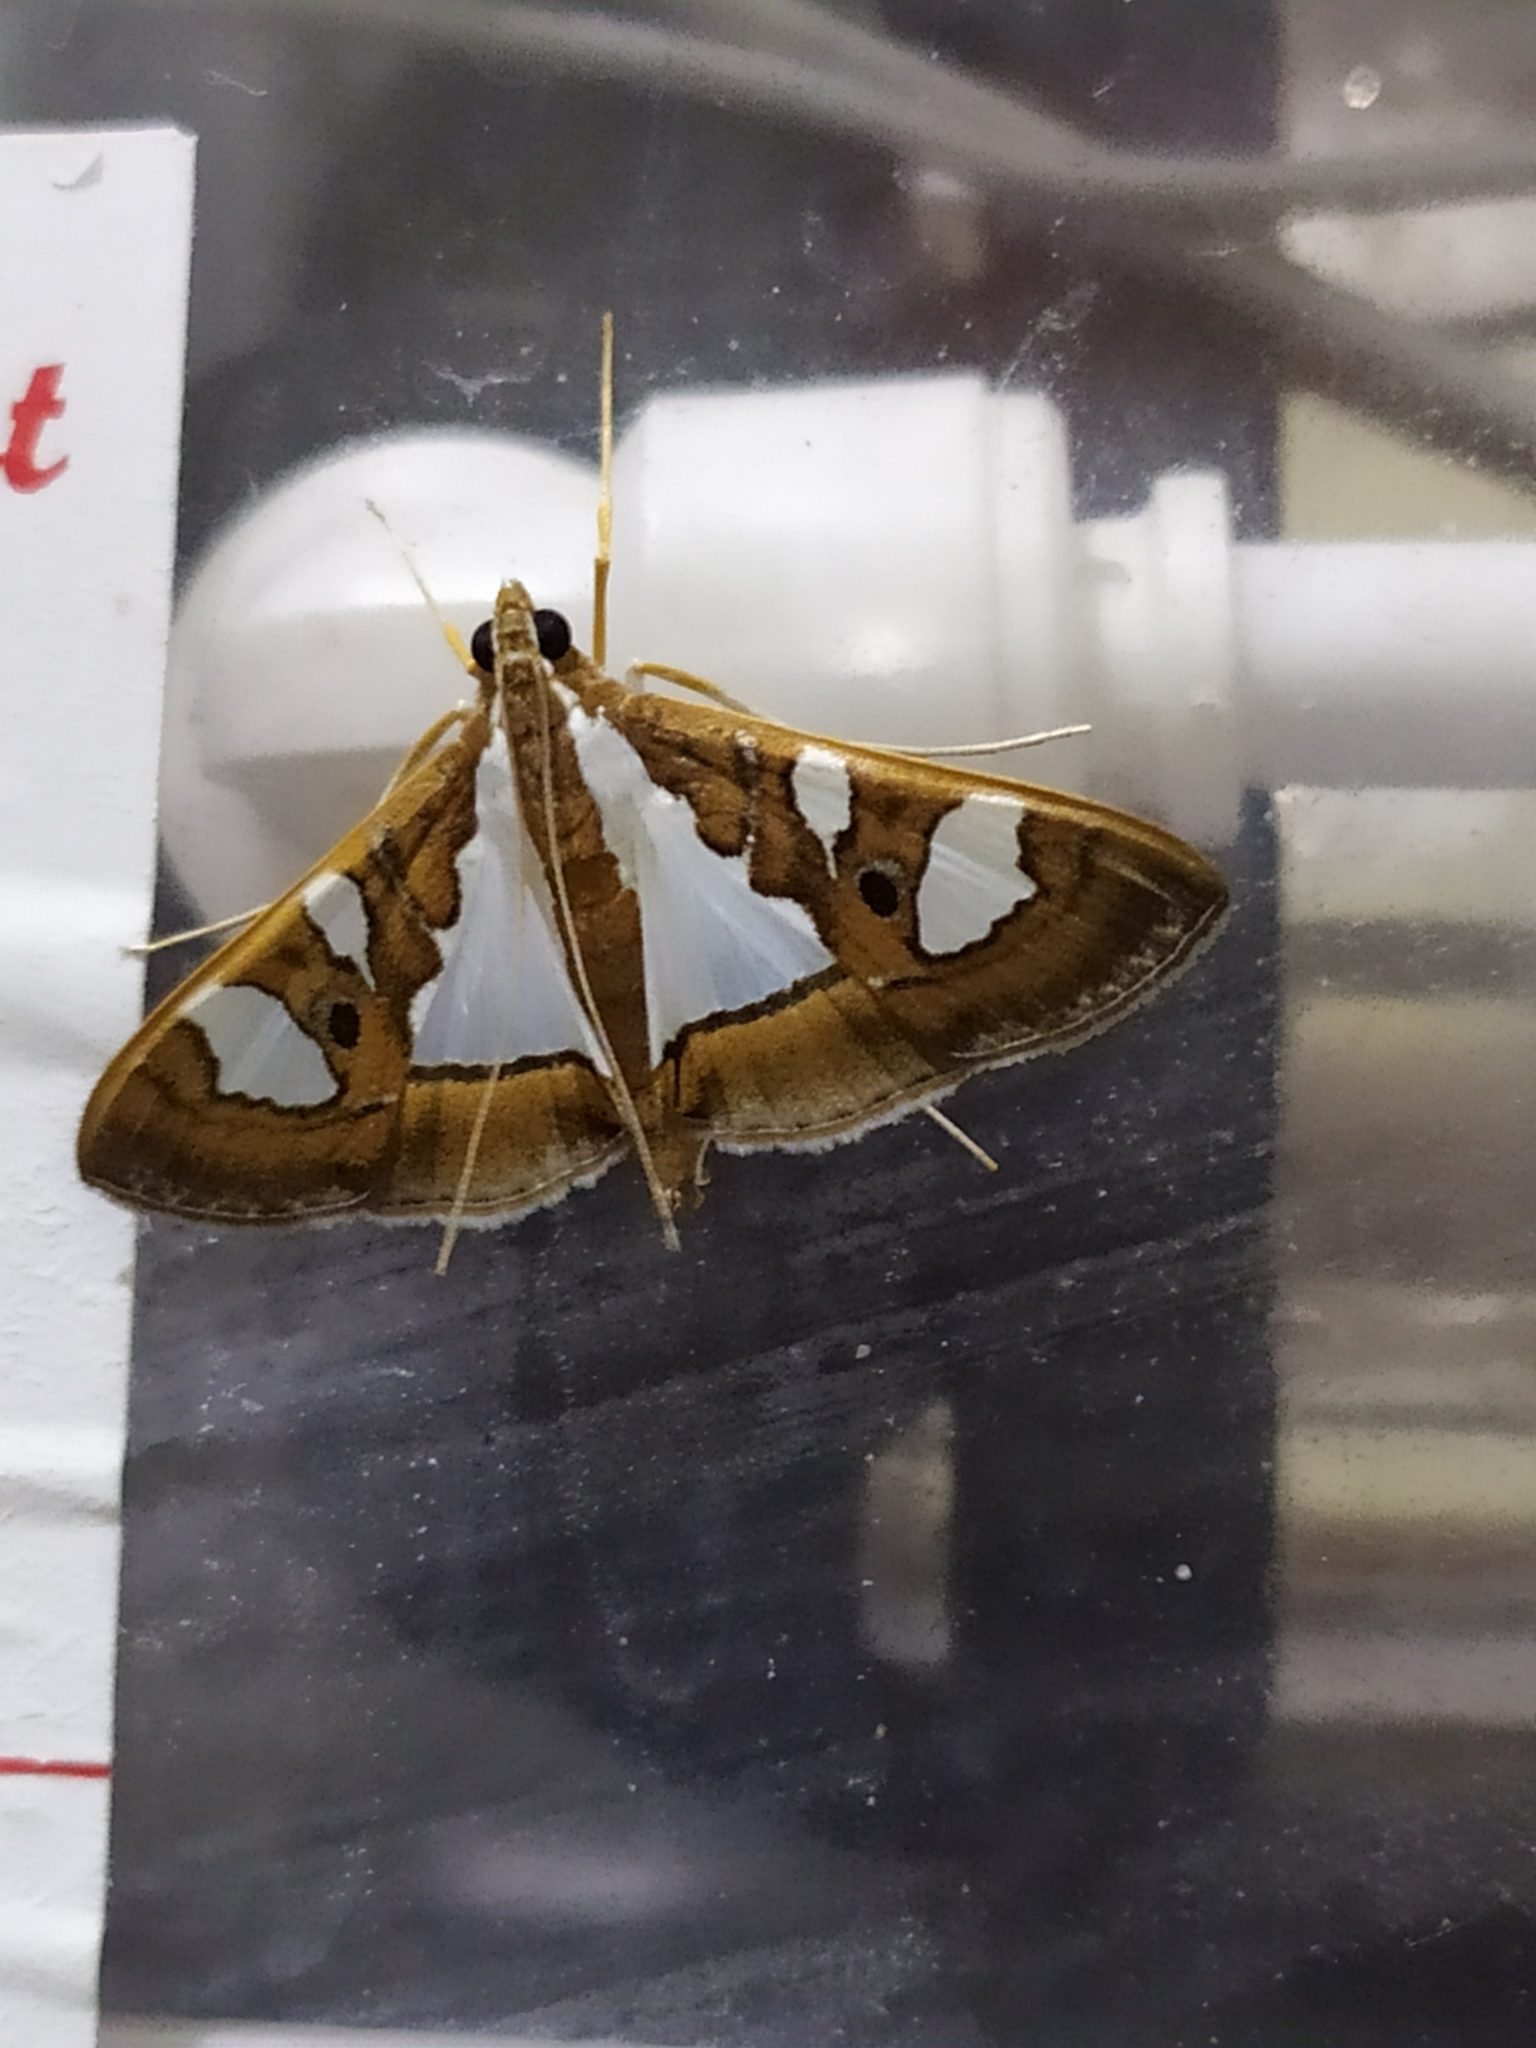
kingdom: Animalia
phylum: Arthropoda
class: Insecta
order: Lepidoptera
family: Crambidae
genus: Glyphodes
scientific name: Glyphodes bivitralis
